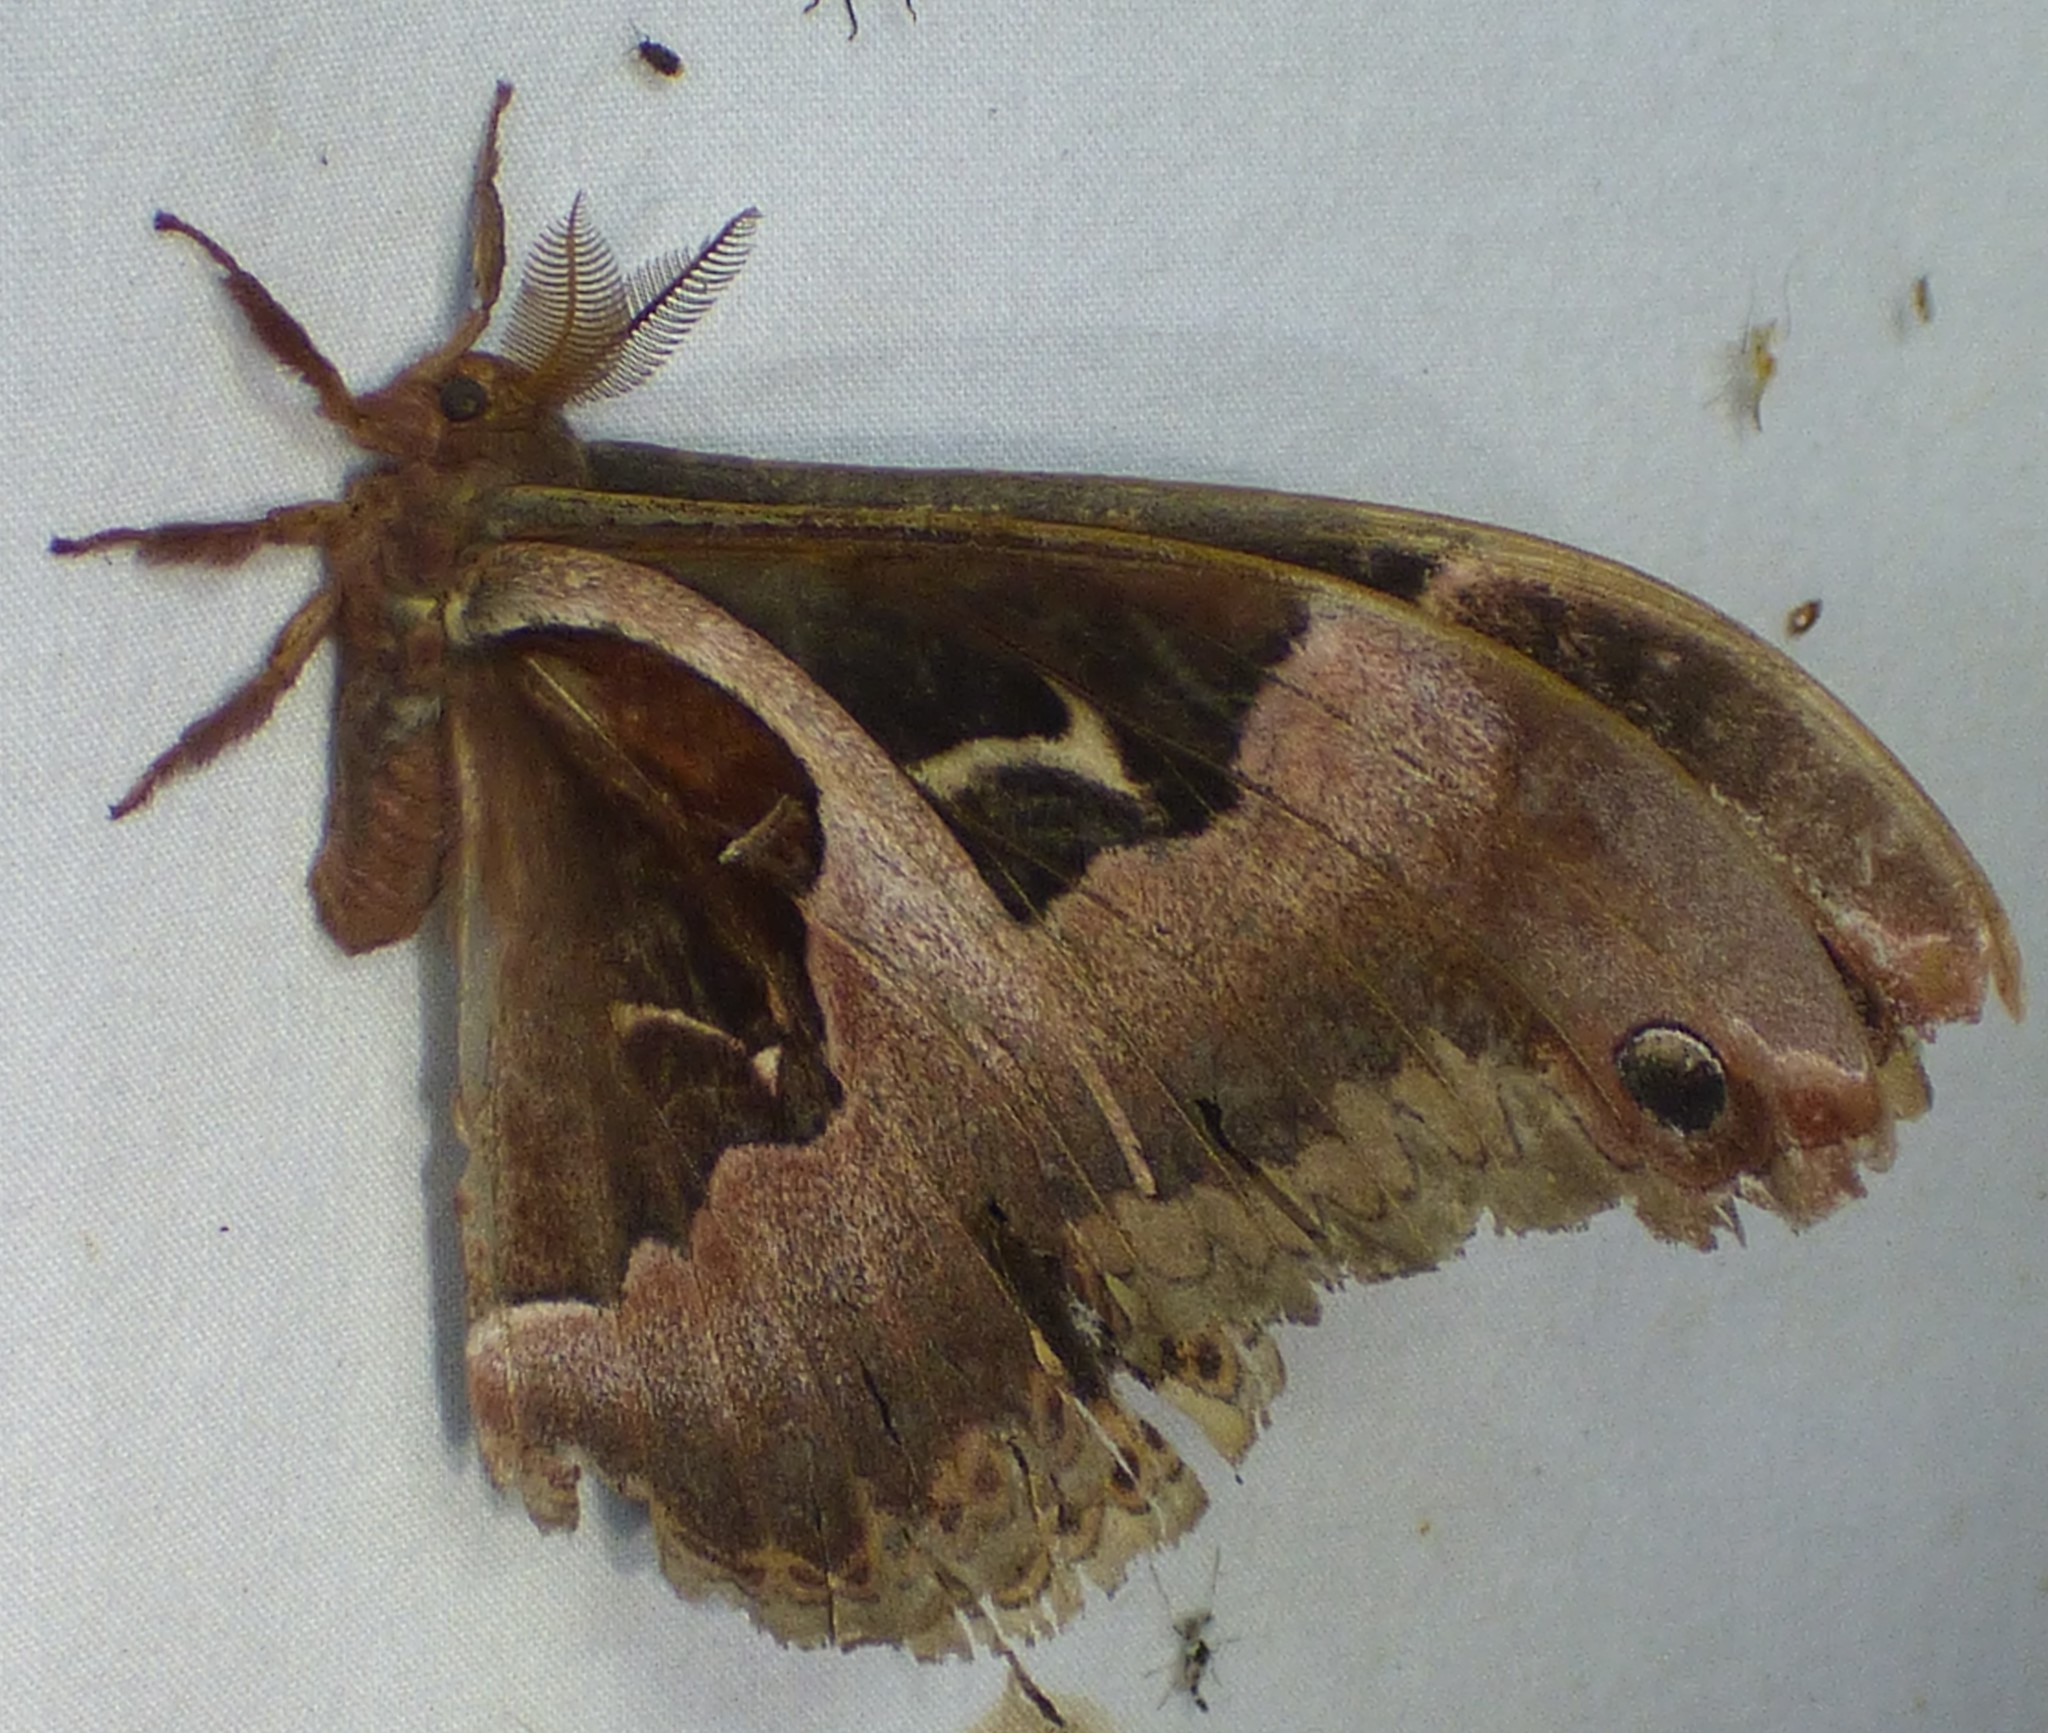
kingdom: Animalia
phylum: Arthropoda
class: Insecta
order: Lepidoptera
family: Saturniidae
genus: Callosamia
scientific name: Callosamia angulifera
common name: Tulip tree silkmoth
